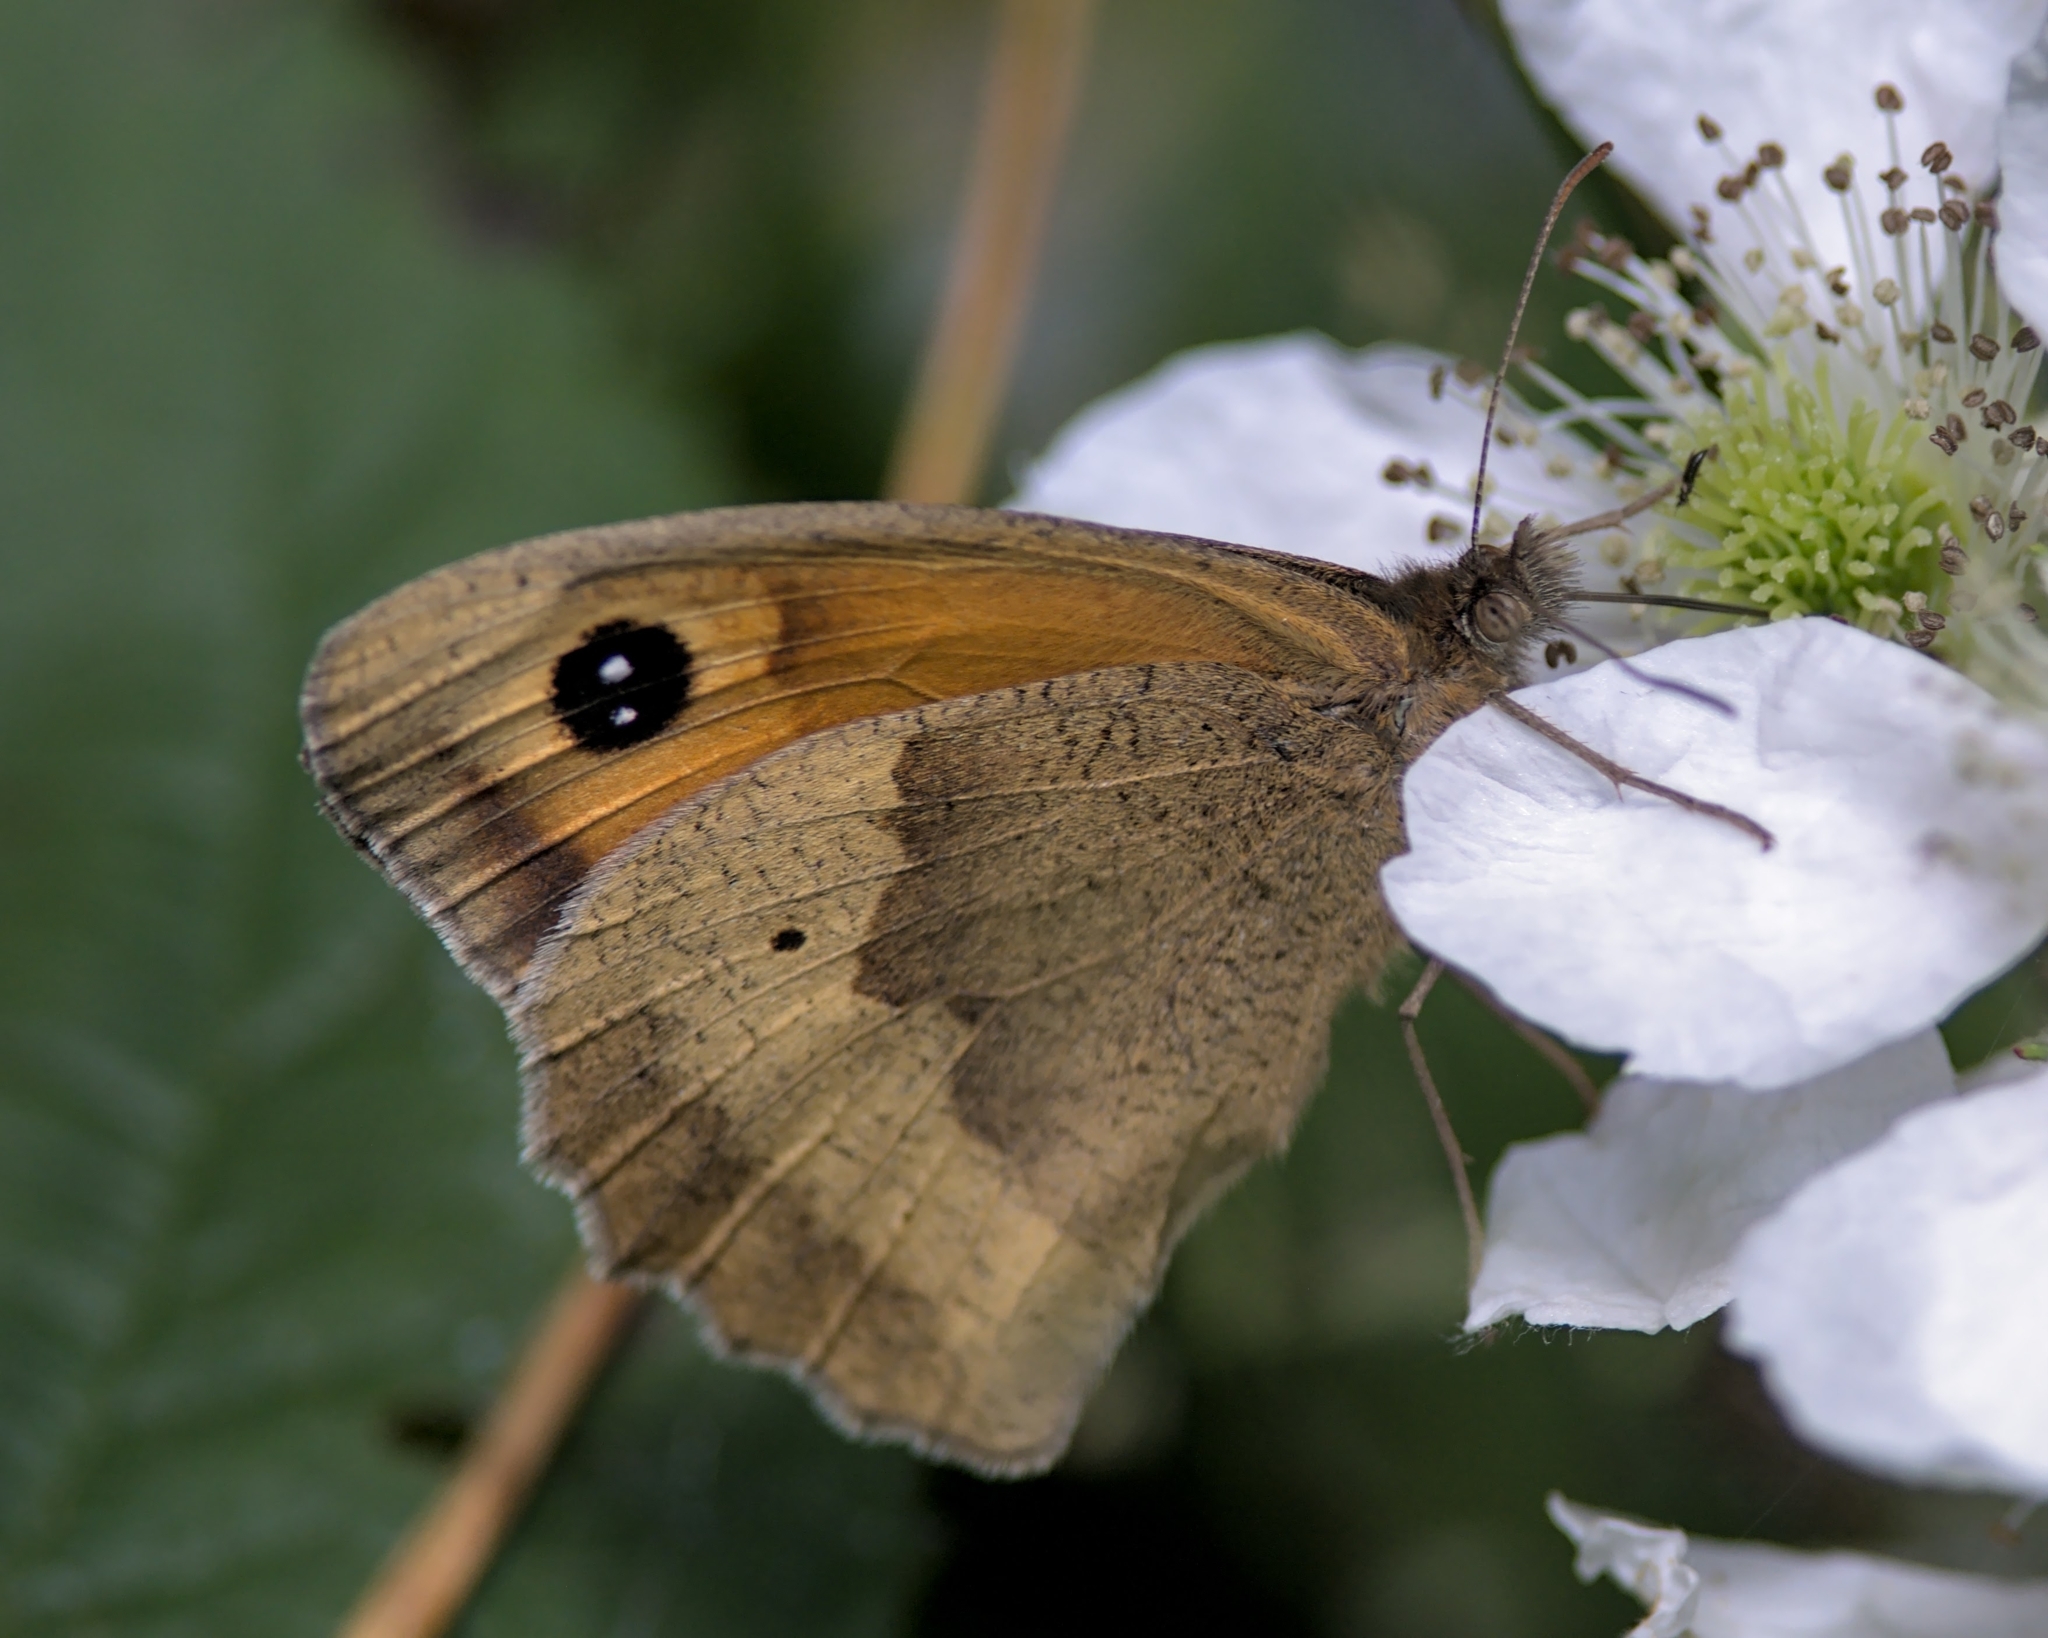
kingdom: Animalia
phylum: Arthropoda
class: Insecta
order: Lepidoptera
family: Nymphalidae
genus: Maniola
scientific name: Maniola jurtina
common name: Meadow brown
